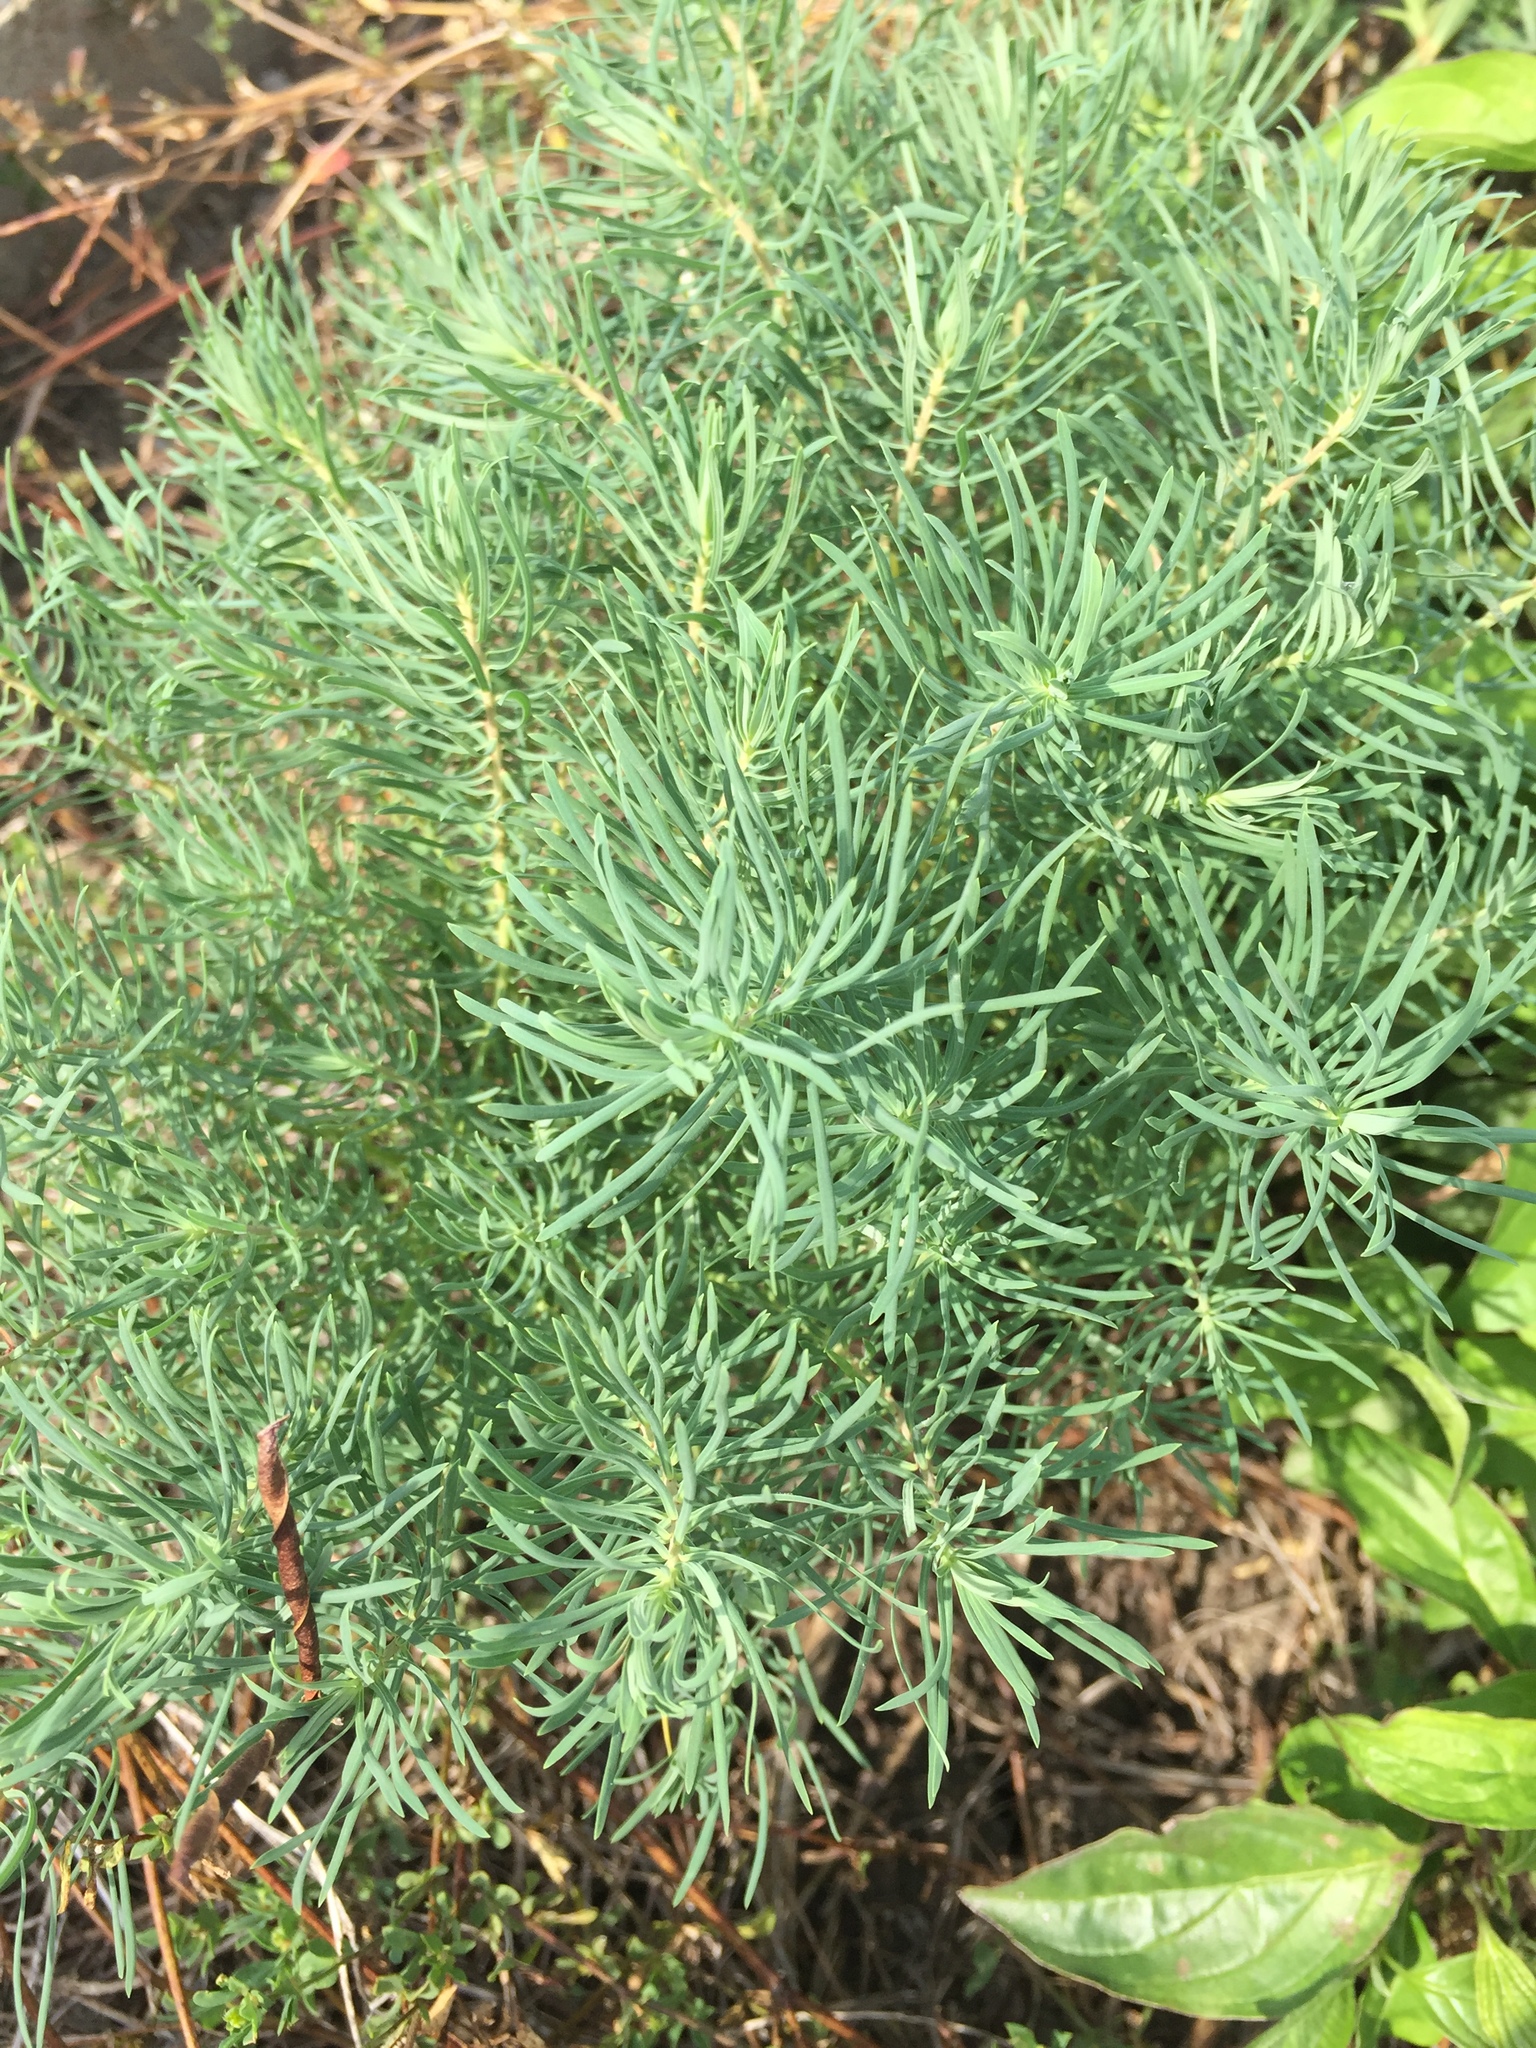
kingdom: Plantae
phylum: Tracheophyta
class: Magnoliopsida
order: Malpighiales
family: Euphorbiaceae
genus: Euphorbia
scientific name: Euphorbia cyparissias
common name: Cypress spurge
